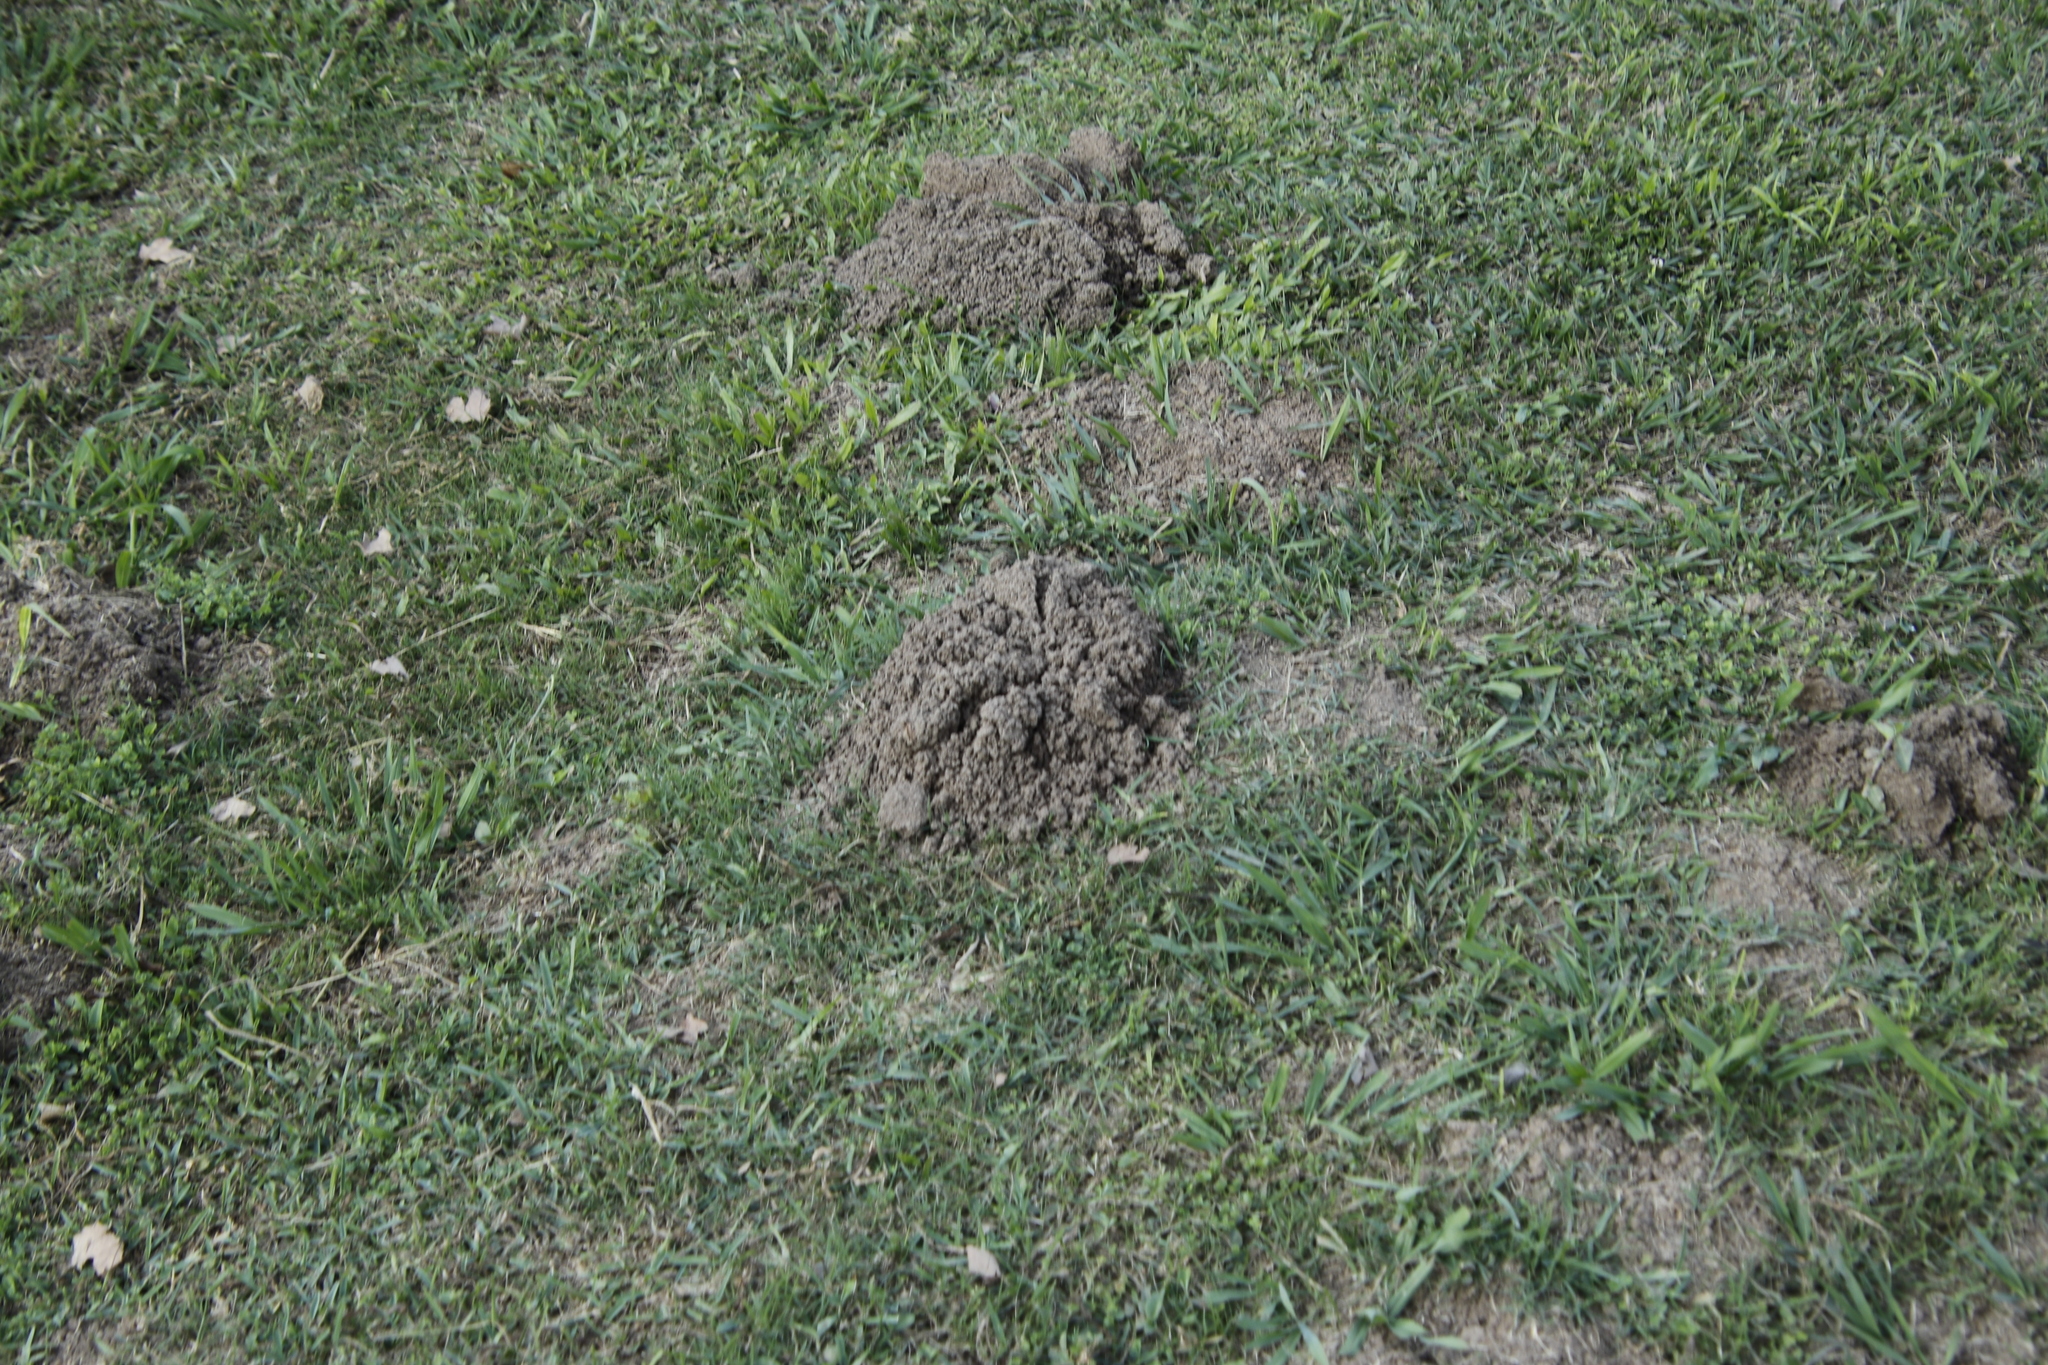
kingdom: Animalia
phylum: Chordata
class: Mammalia
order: Rodentia
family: Bathyergidae
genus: Cryptomys
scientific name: Cryptomys natalensis
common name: Natal mole-rat
